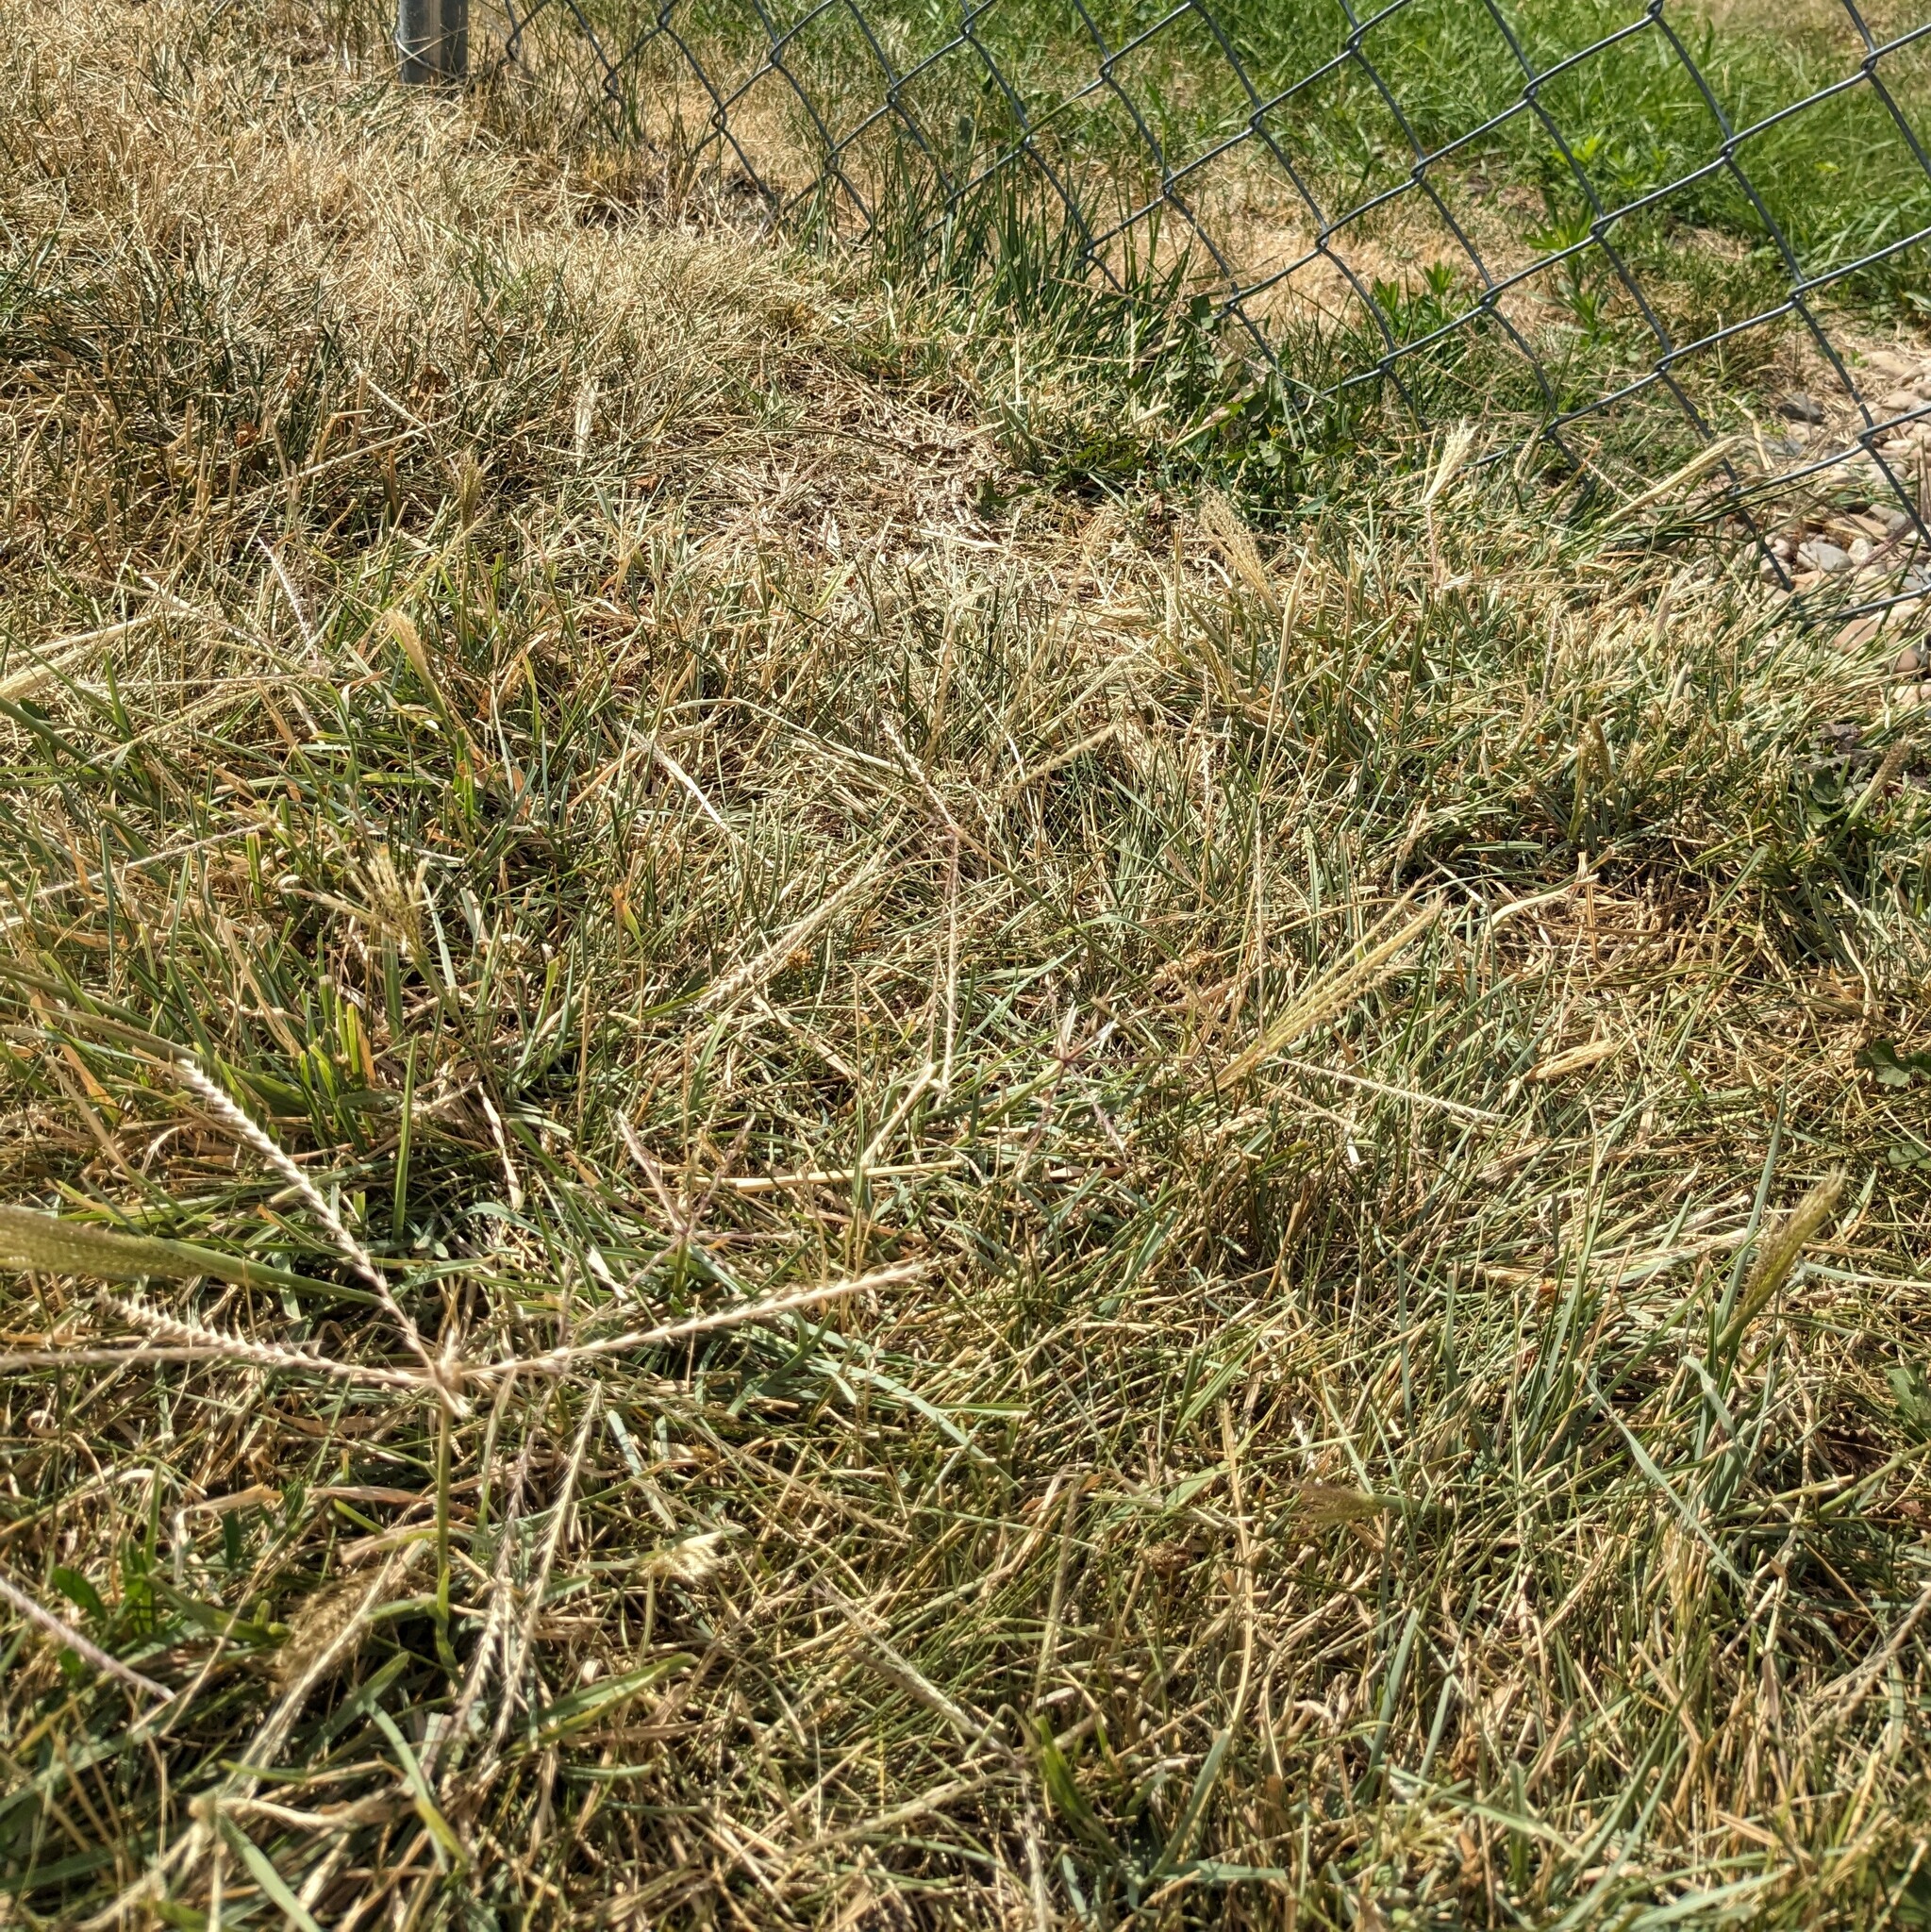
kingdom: Plantae
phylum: Tracheophyta
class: Liliopsida
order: Poales
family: Poaceae
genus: Chloris
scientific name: Chloris verticillata
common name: Tumble windmill grass
